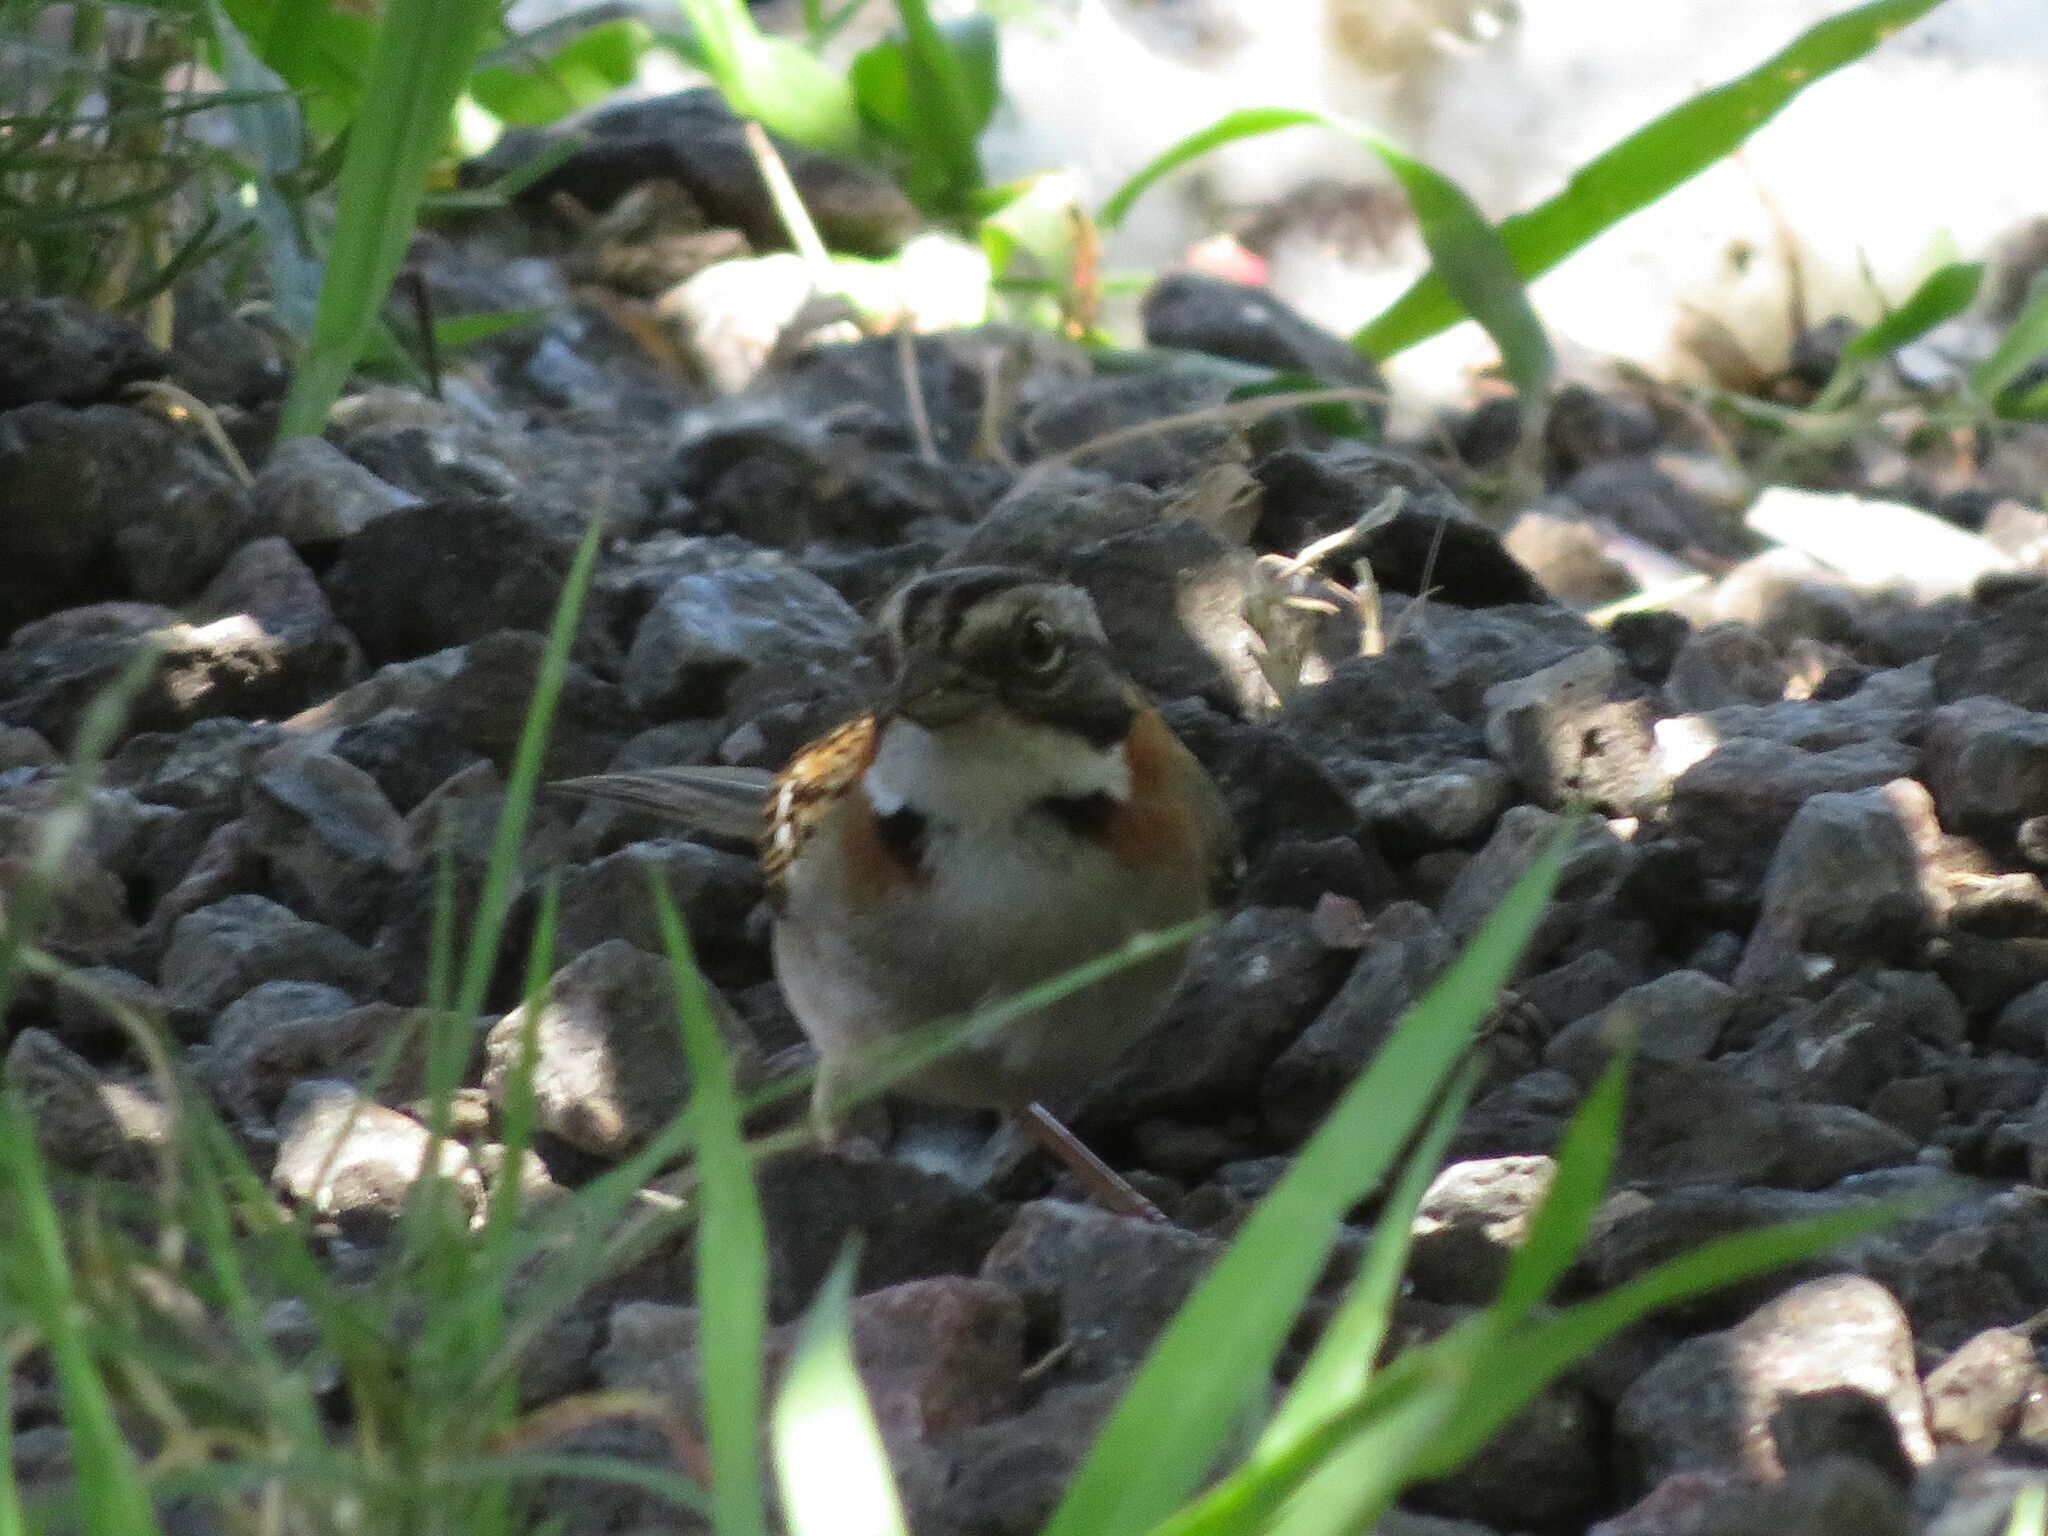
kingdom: Animalia
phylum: Chordata
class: Aves
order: Passeriformes
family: Passerellidae
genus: Zonotrichia
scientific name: Zonotrichia capensis
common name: Rufous-collared sparrow
